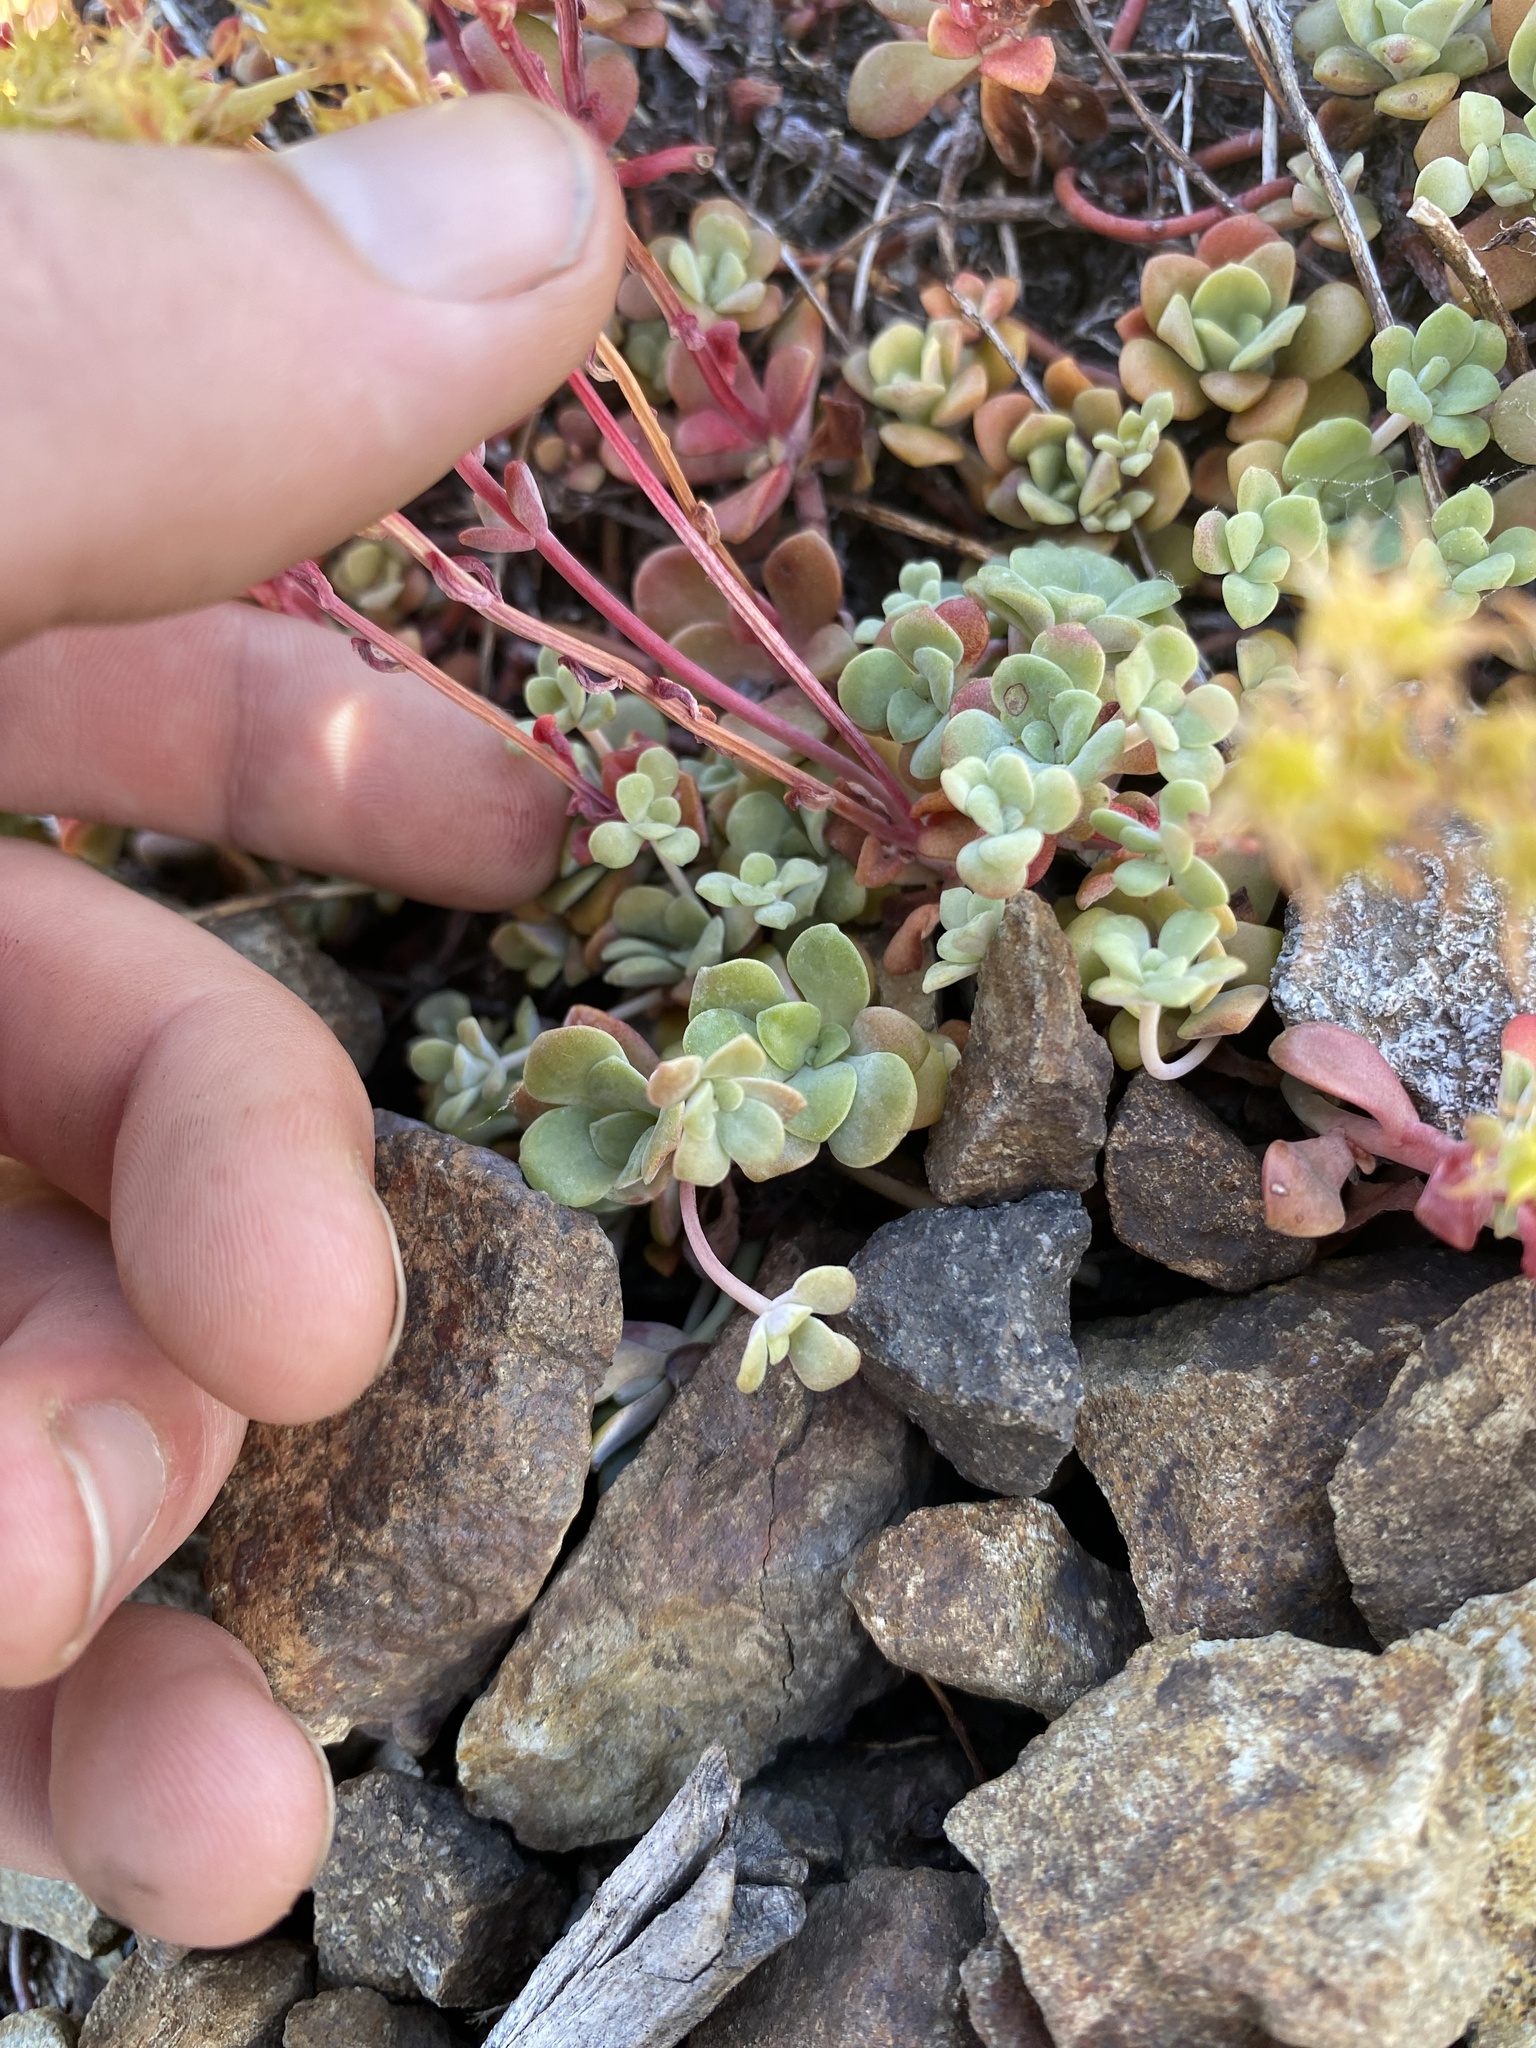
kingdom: Plantae
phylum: Tracheophyta
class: Magnoliopsida
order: Saxifragales
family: Crassulaceae
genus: Sedum
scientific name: Sedum spathulifolium
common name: Colorado stonecrop
